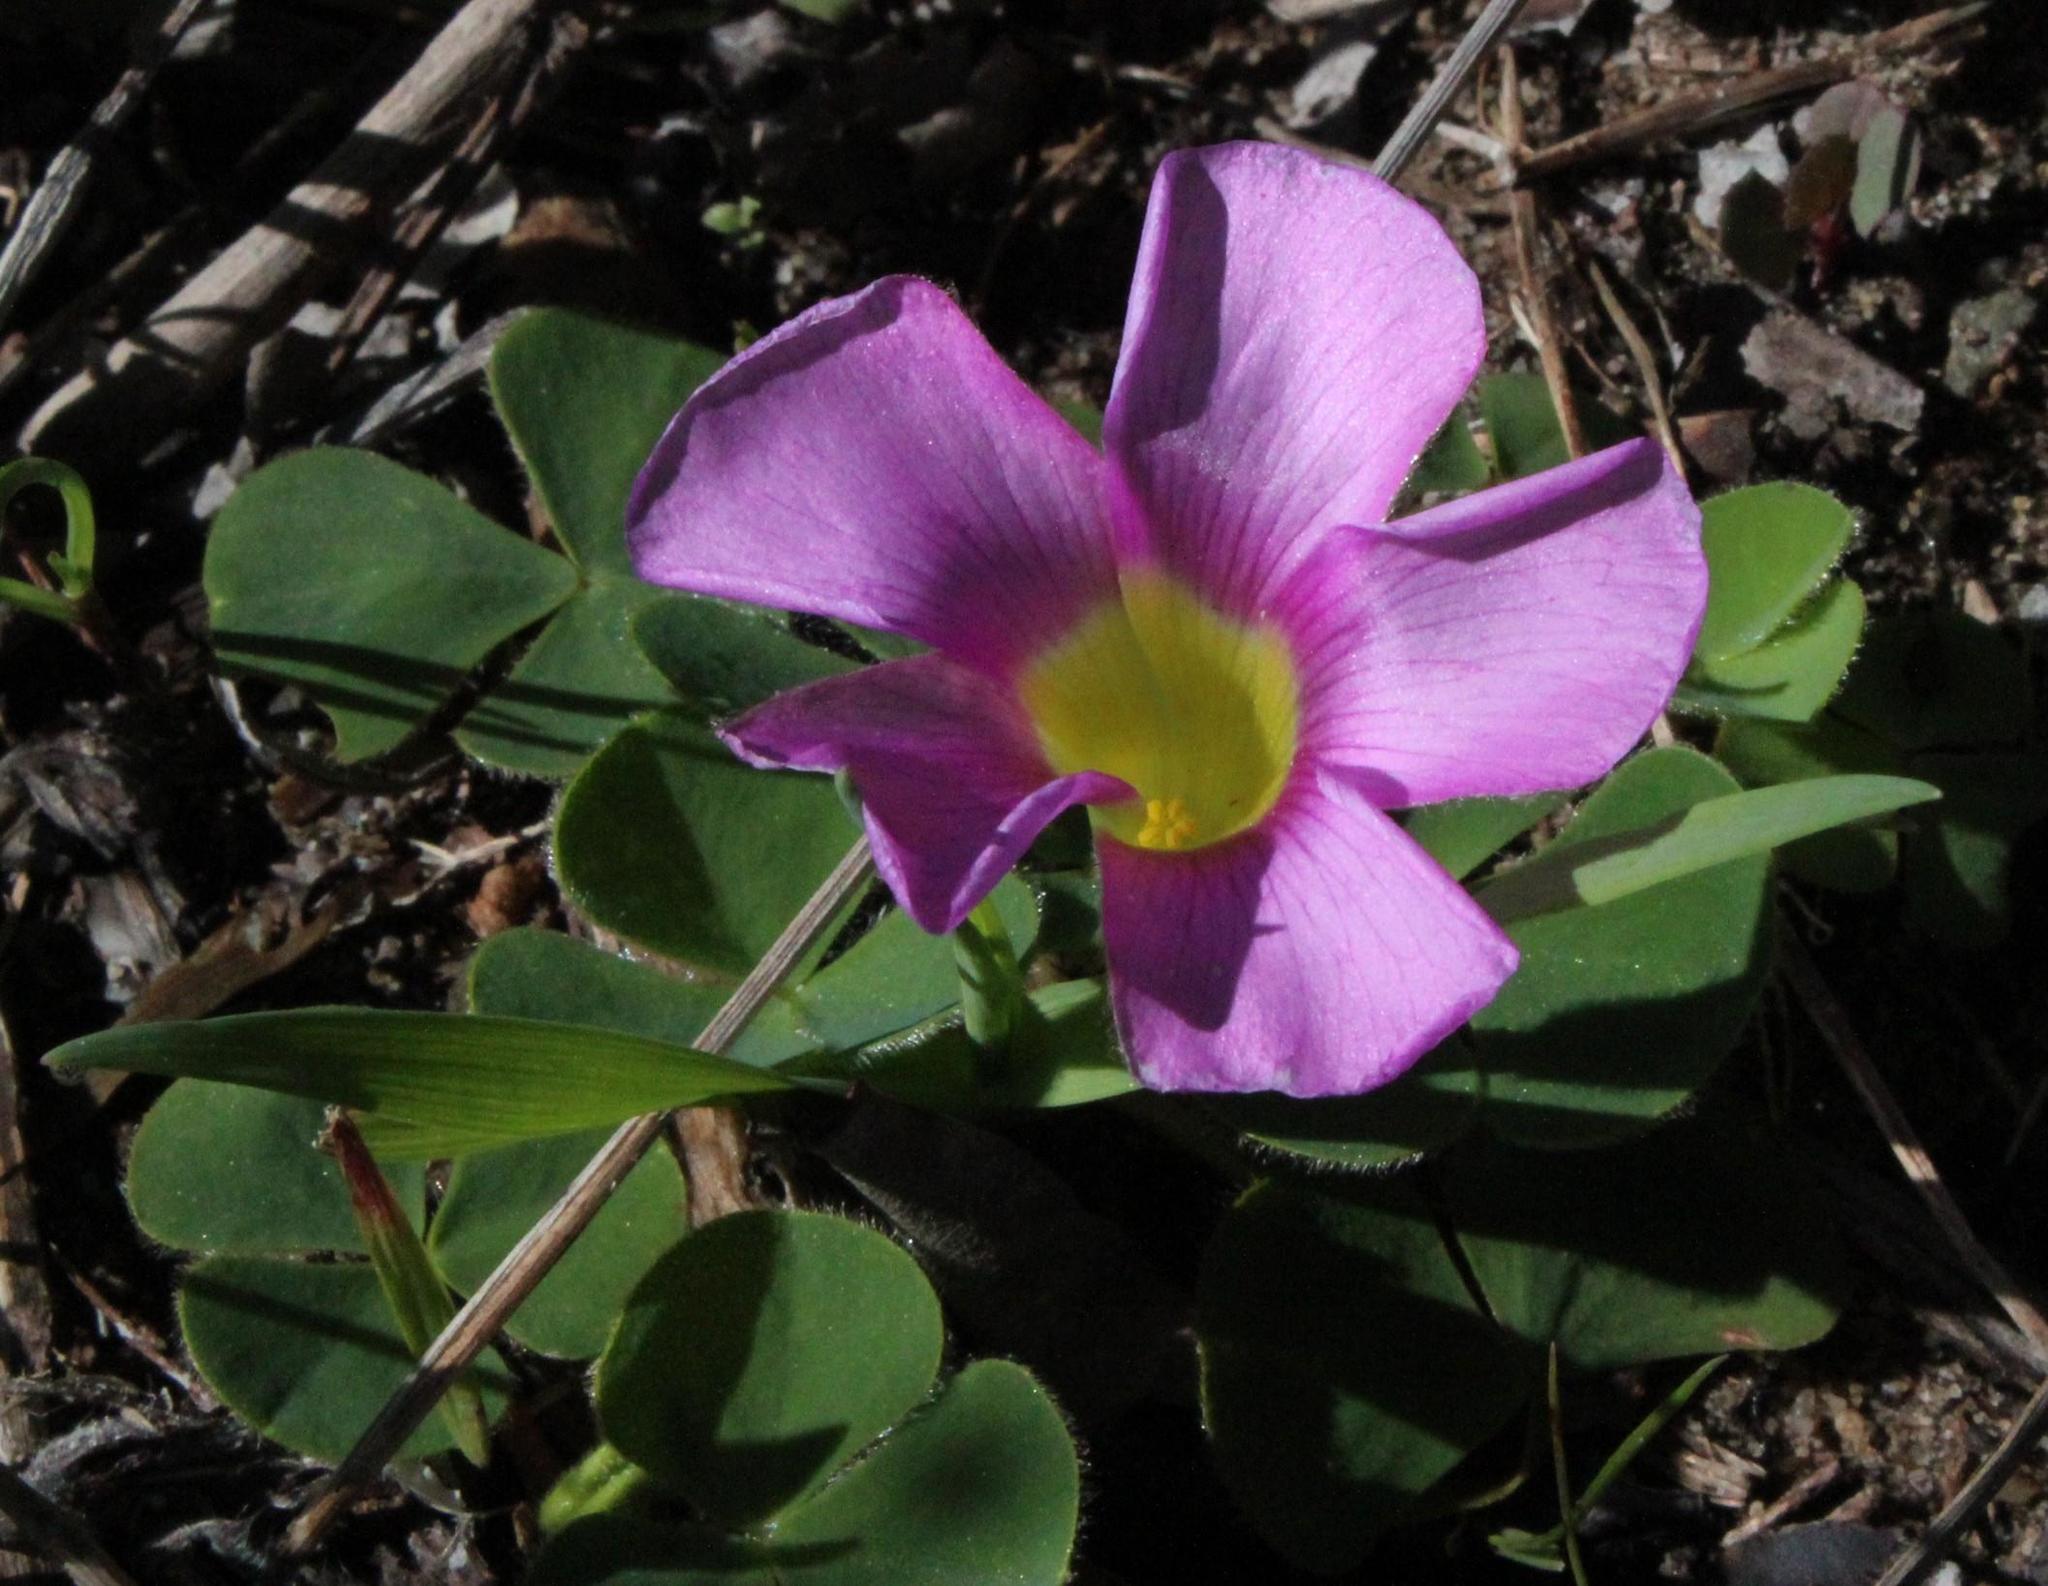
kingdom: Plantae
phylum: Tracheophyta
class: Magnoliopsida
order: Oxalidales
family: Oxalidaceae
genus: Oxalis
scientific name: Oxalis purpurea
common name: Purple woodsorrel
